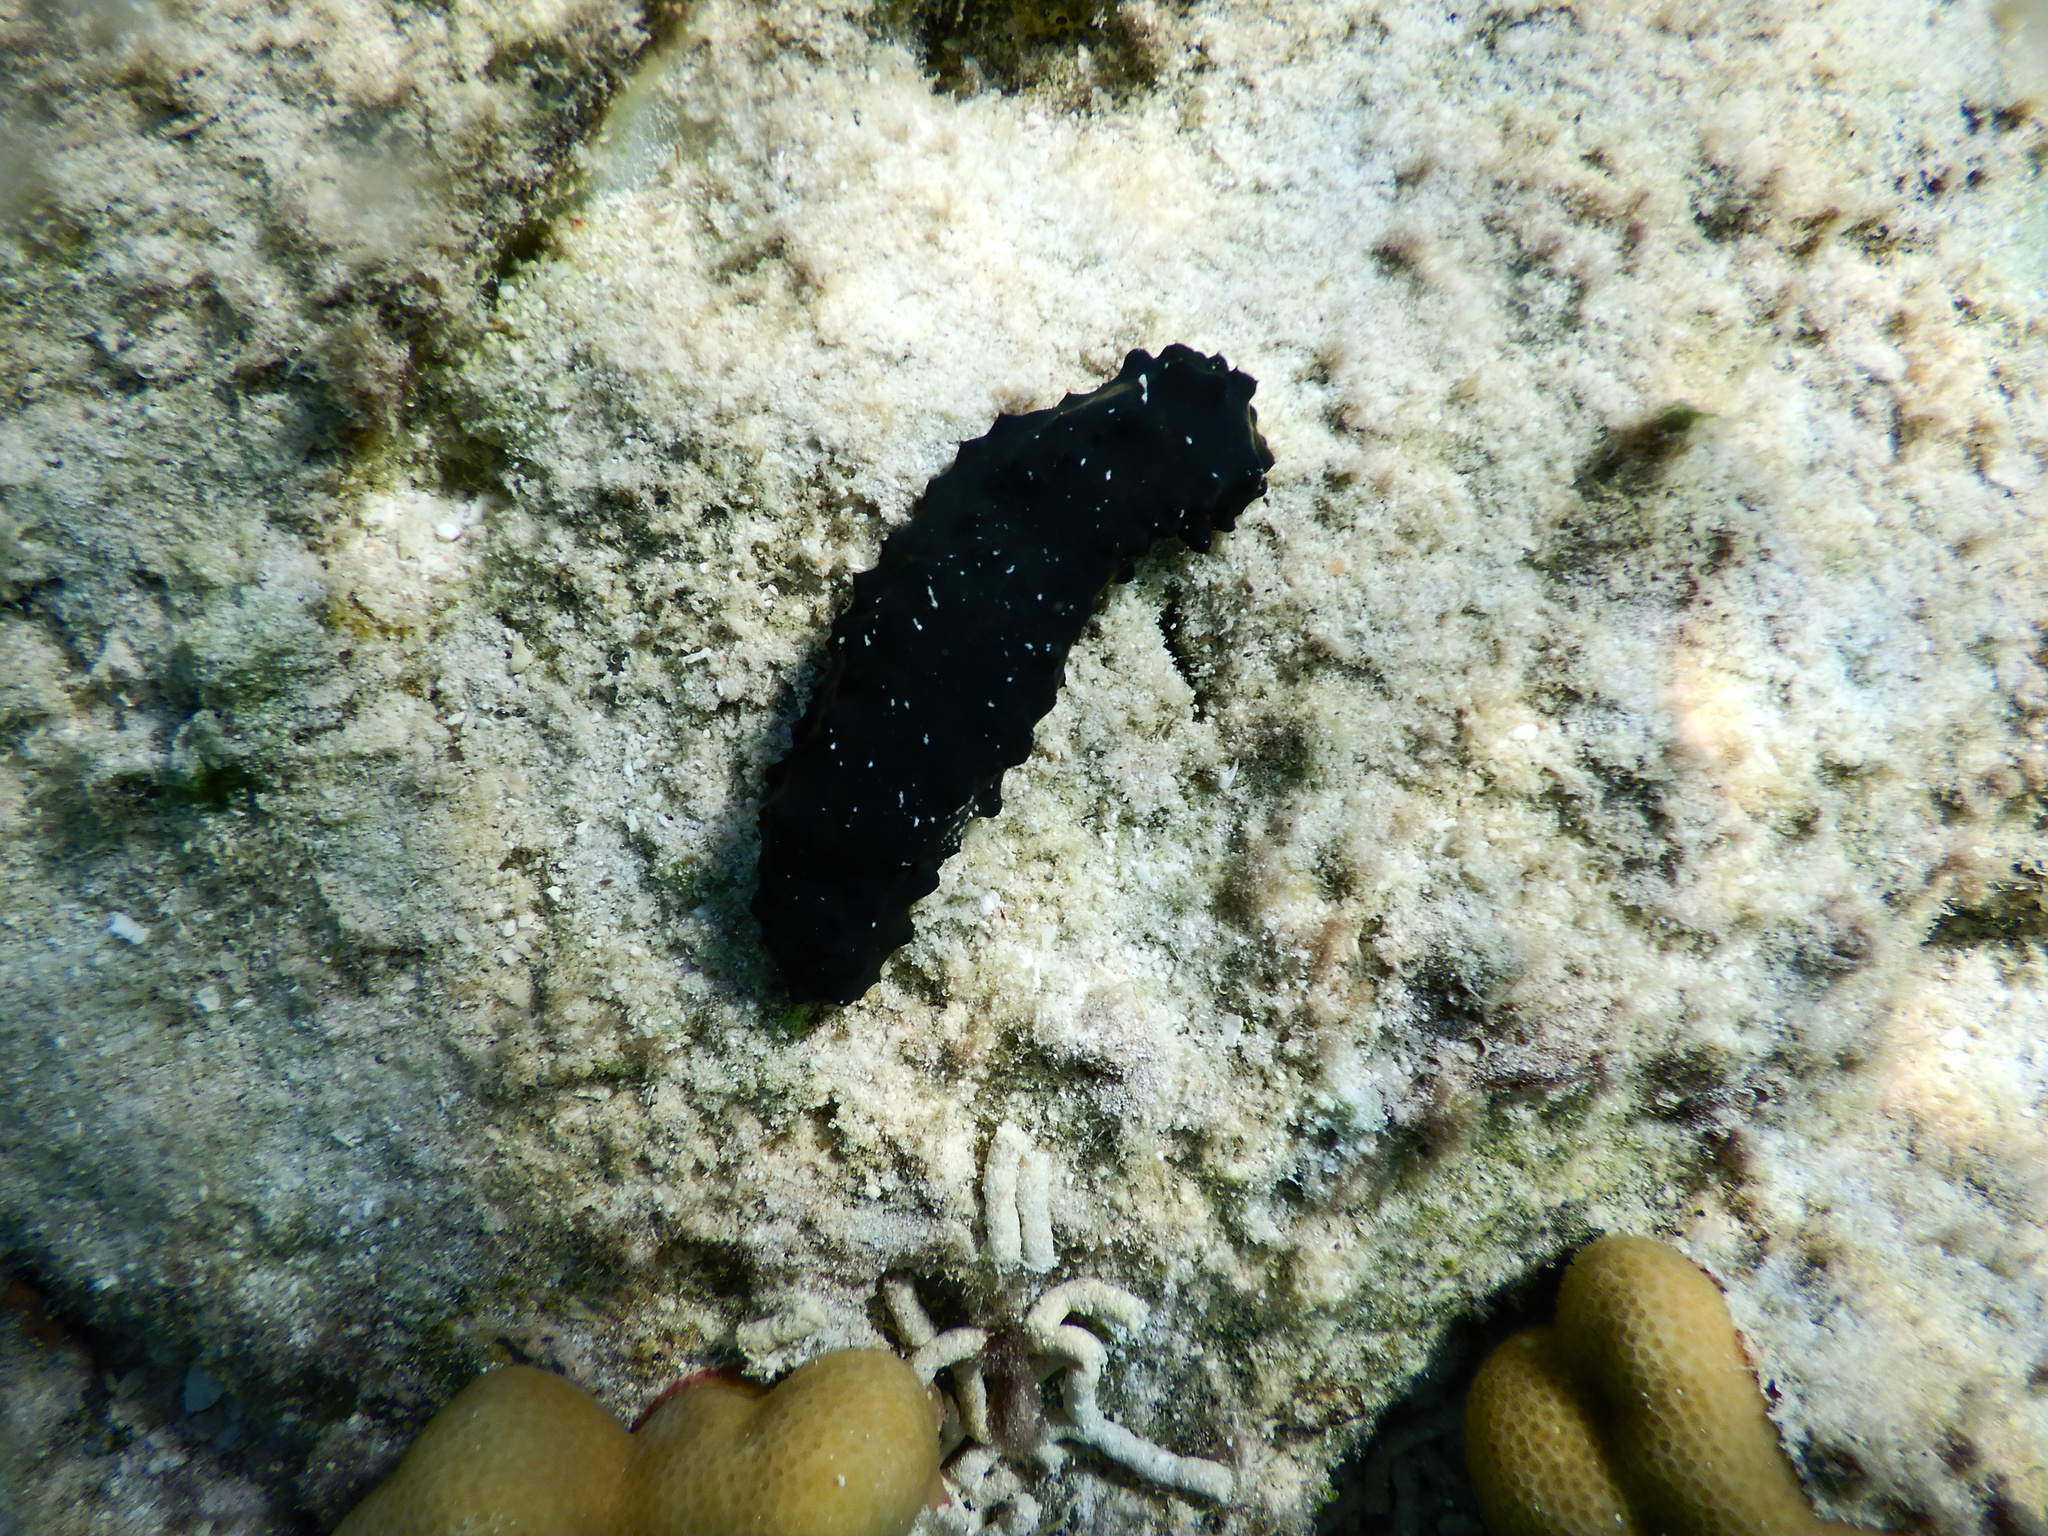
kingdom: Animalia
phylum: Echinodermata
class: Holothuroidea
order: Synallactida
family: Stichopodidae
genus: Stichopus
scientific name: Stichopus chloronotus
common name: Greenfish
